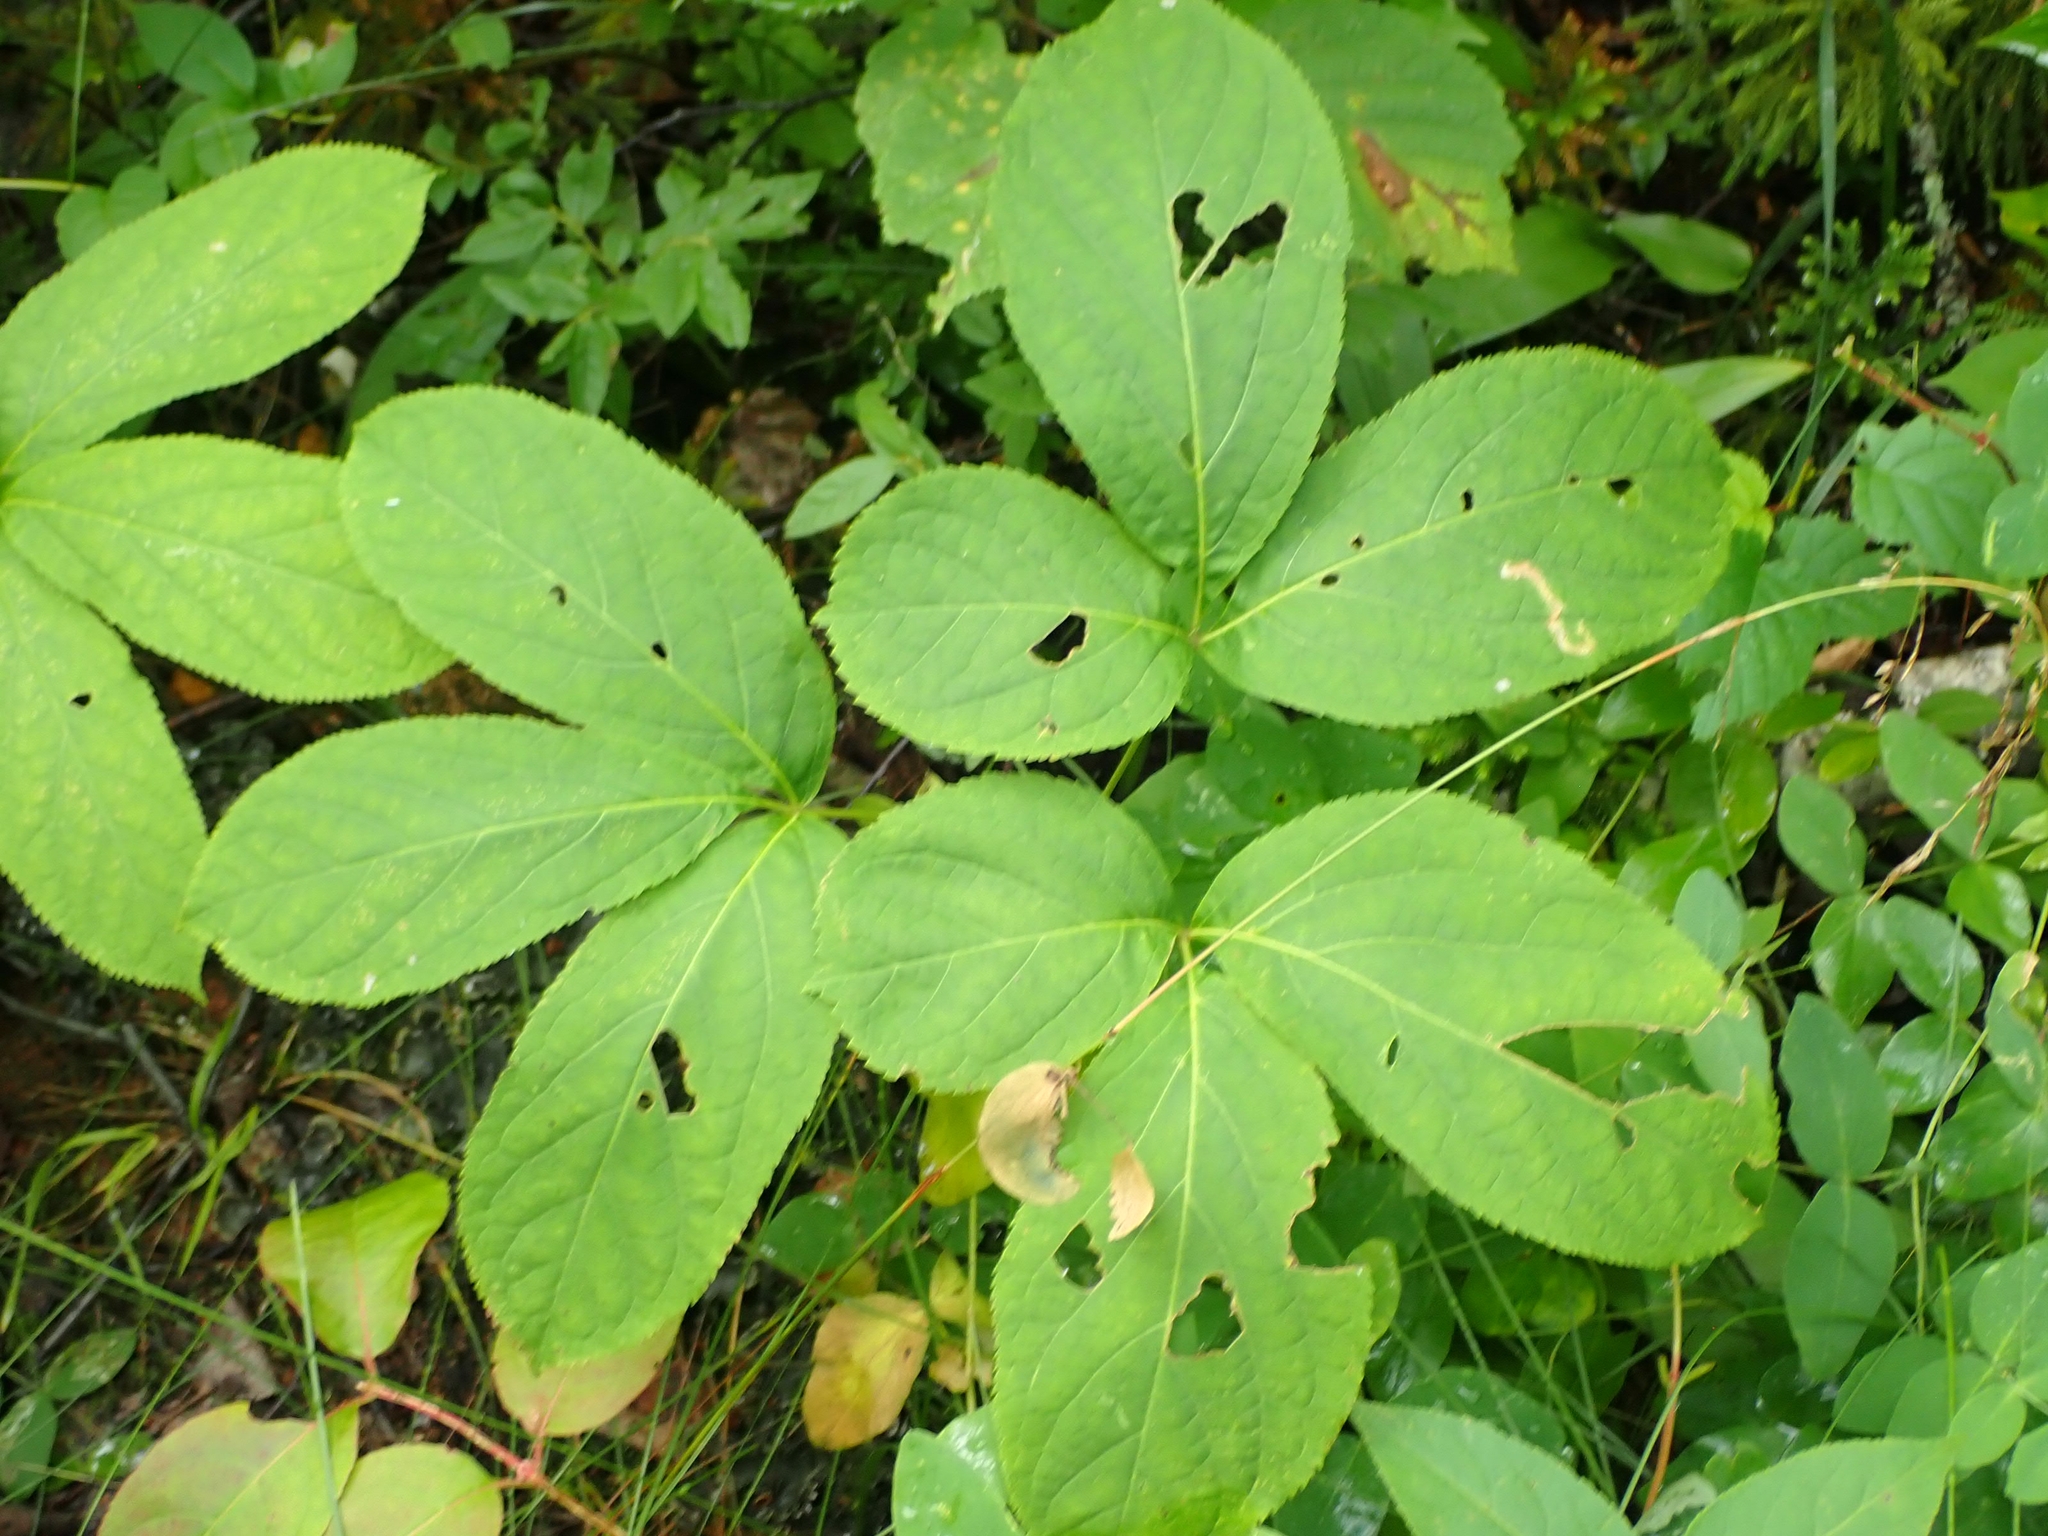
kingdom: Plantae
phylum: Tracheophyta
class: Magnoliopsida
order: Apiales
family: Araliaceae
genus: Aralia
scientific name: Aralia nudicaulis
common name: Wild sarsaparilla
